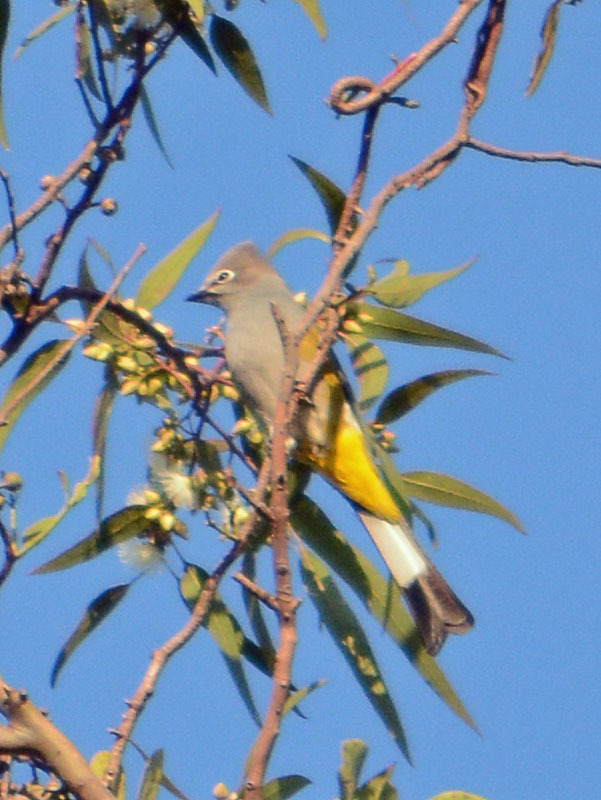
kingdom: Animalia
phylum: Chordata
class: Aves
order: Passeriformes
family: Ptilogonatidae
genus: Ptilogonys
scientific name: Ptilogonys cinereus
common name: Gray silky-flycatcher
